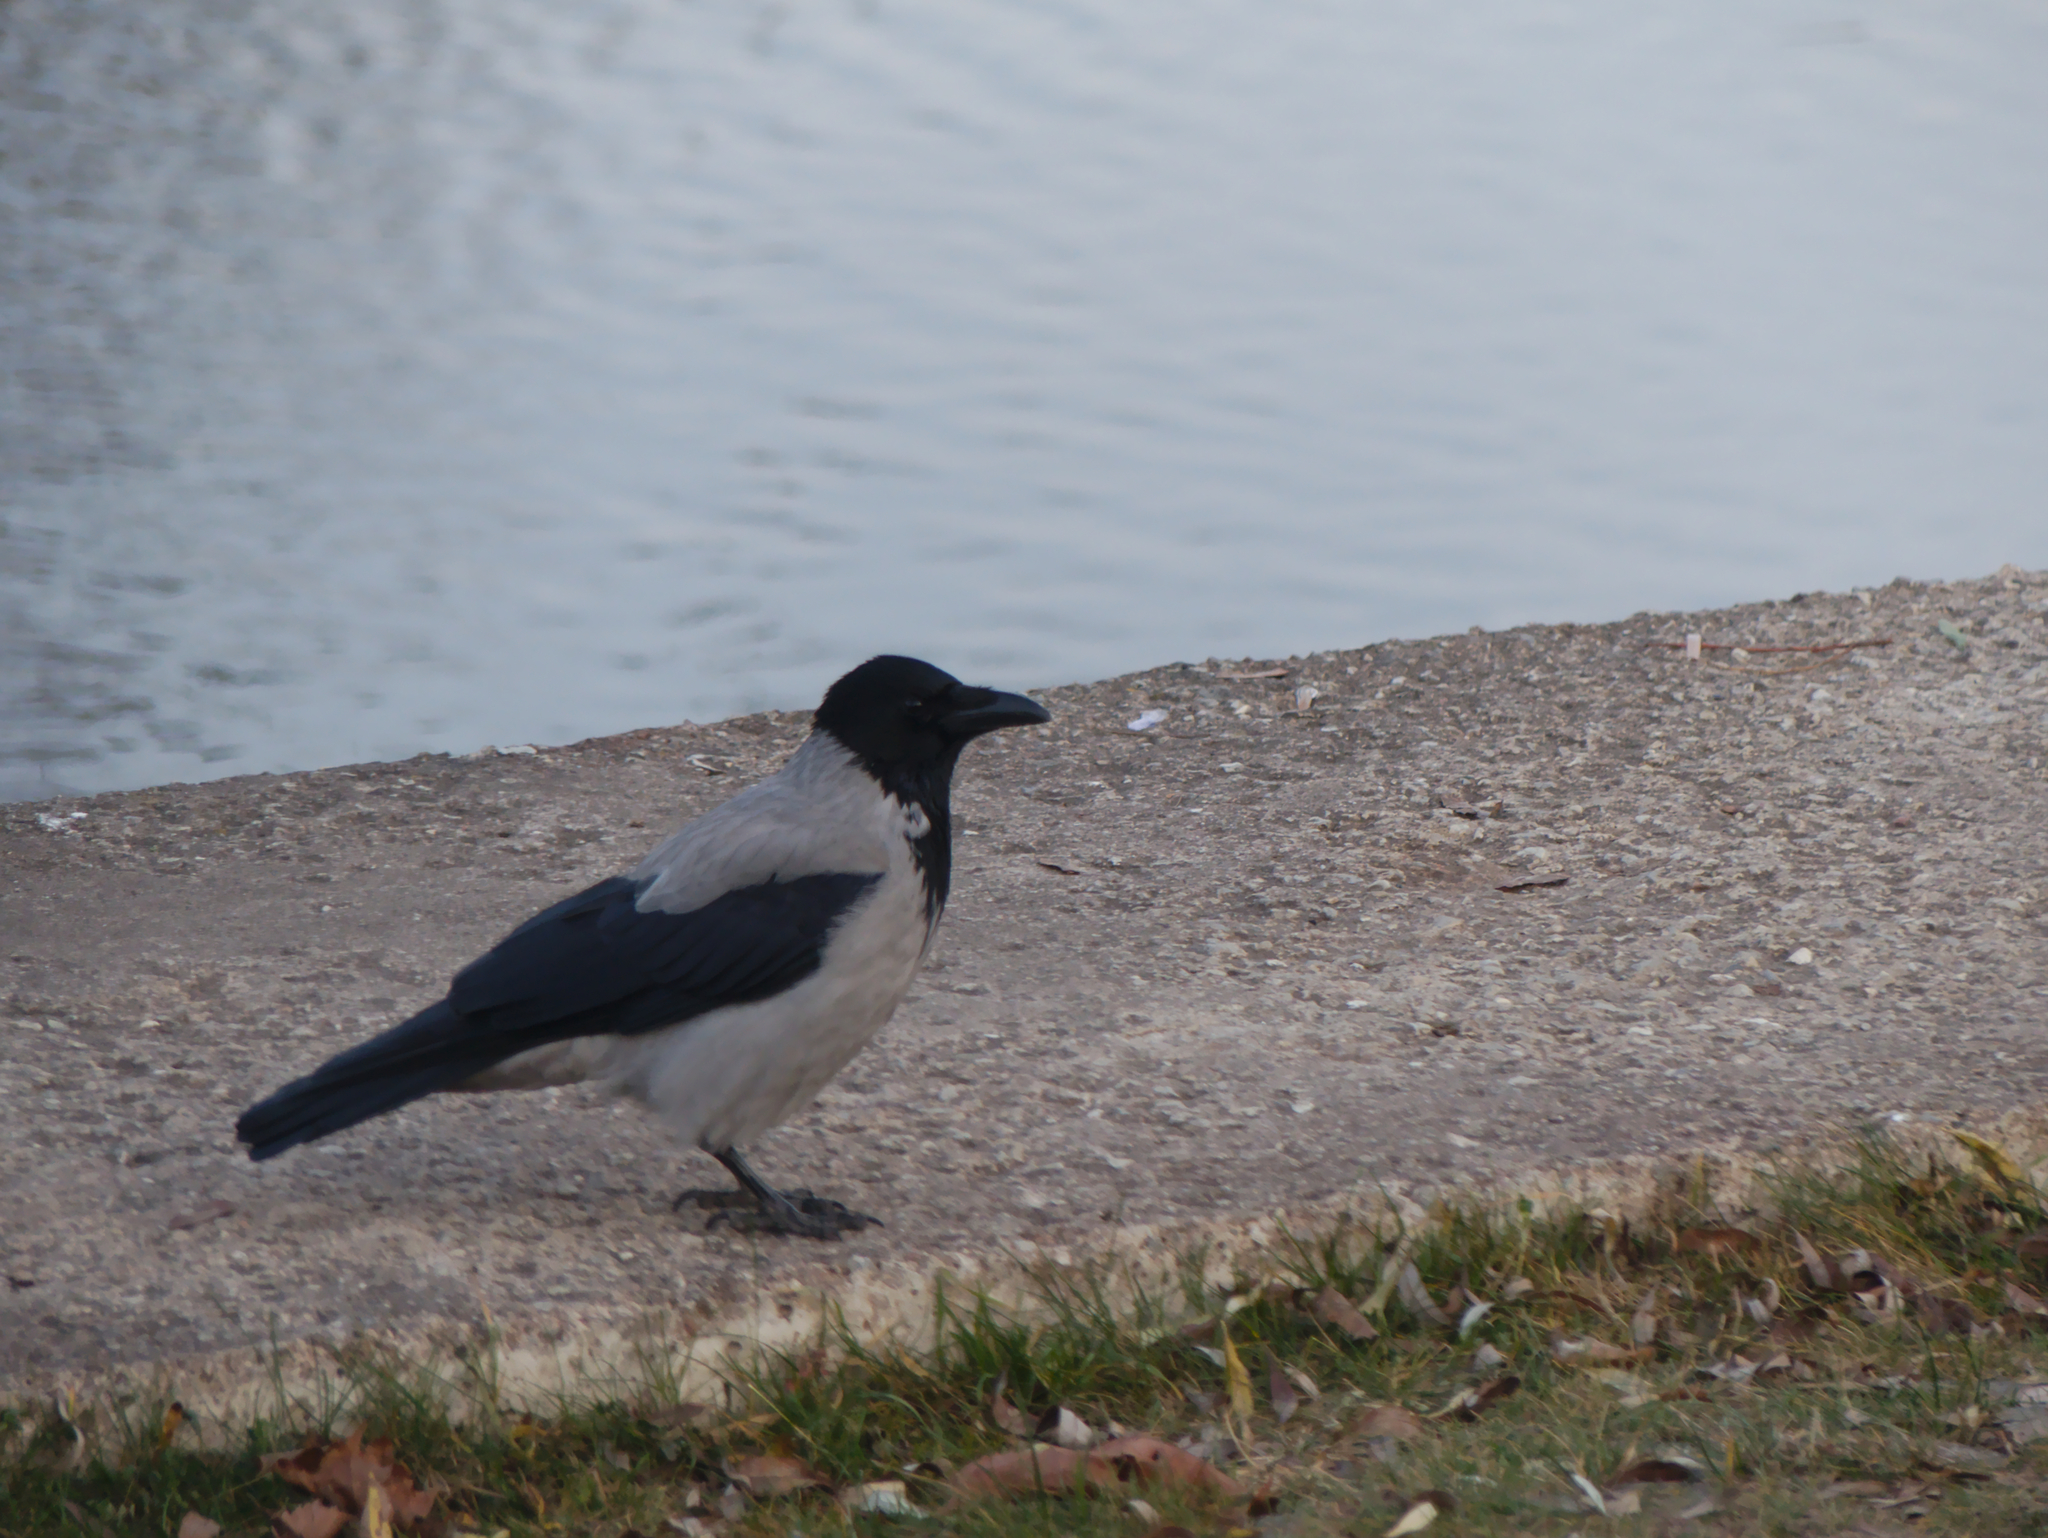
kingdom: Animalia
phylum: Chordata
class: Aves
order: Passeriformes
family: Corvidae
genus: Corvus
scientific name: Corvus cornix
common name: Hooded crow
